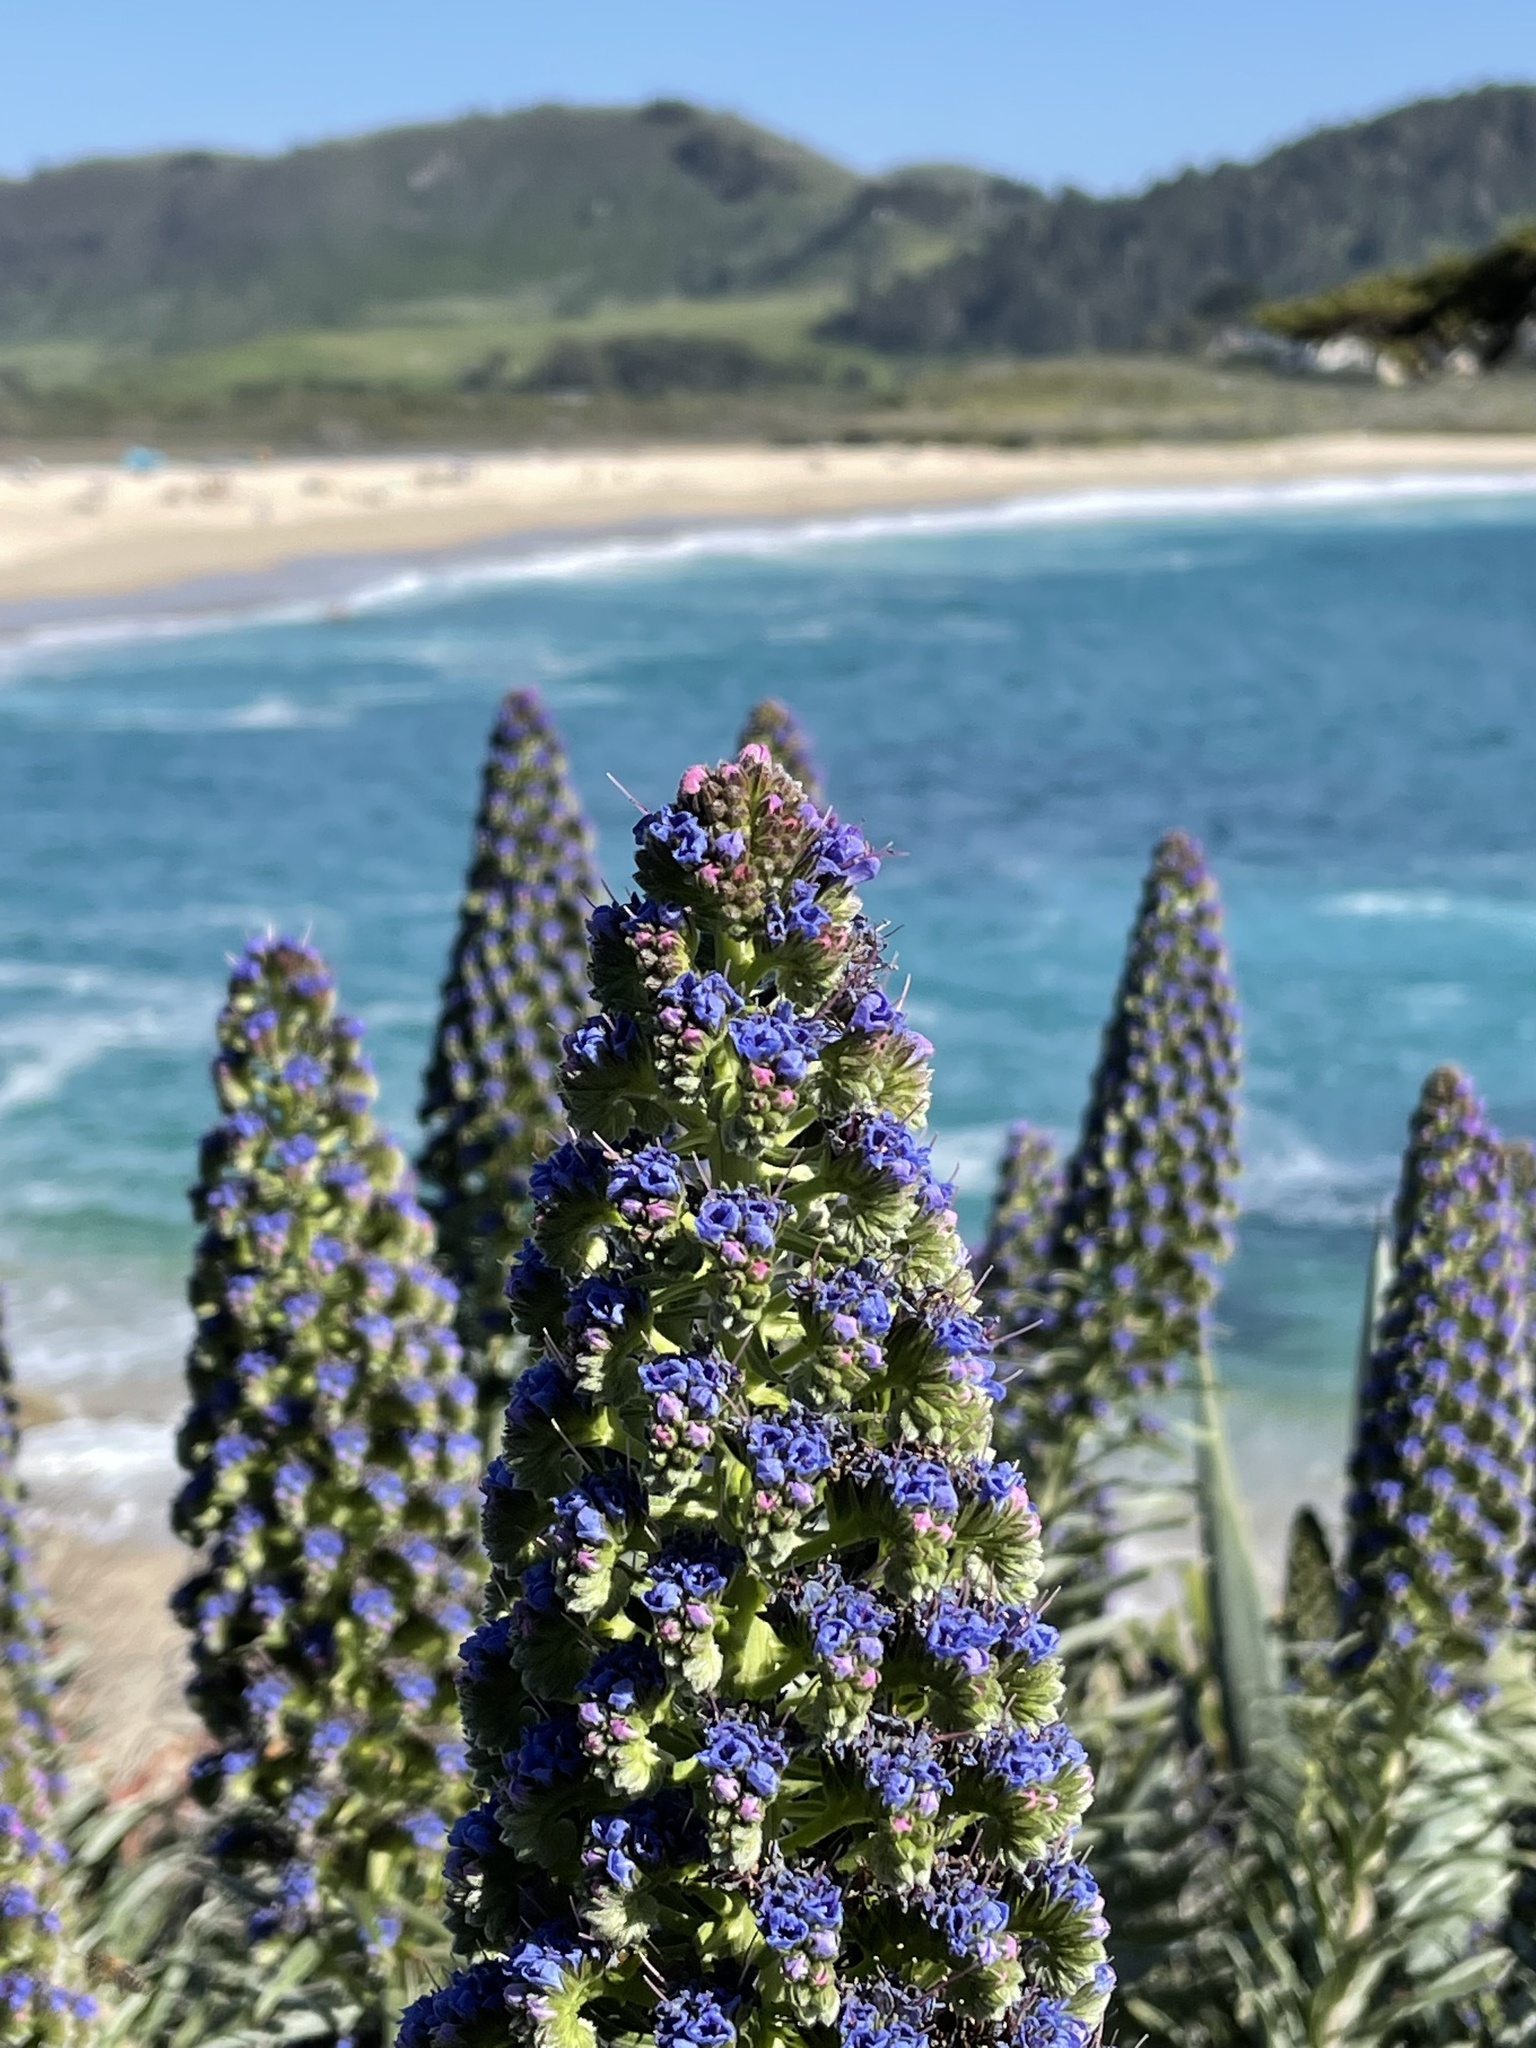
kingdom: Plantae
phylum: Tracheophyta
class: Magnoliopsida
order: Boraginales
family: Boraginaceae
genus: Echium
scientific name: Echium candicans
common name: Pride of madeira
